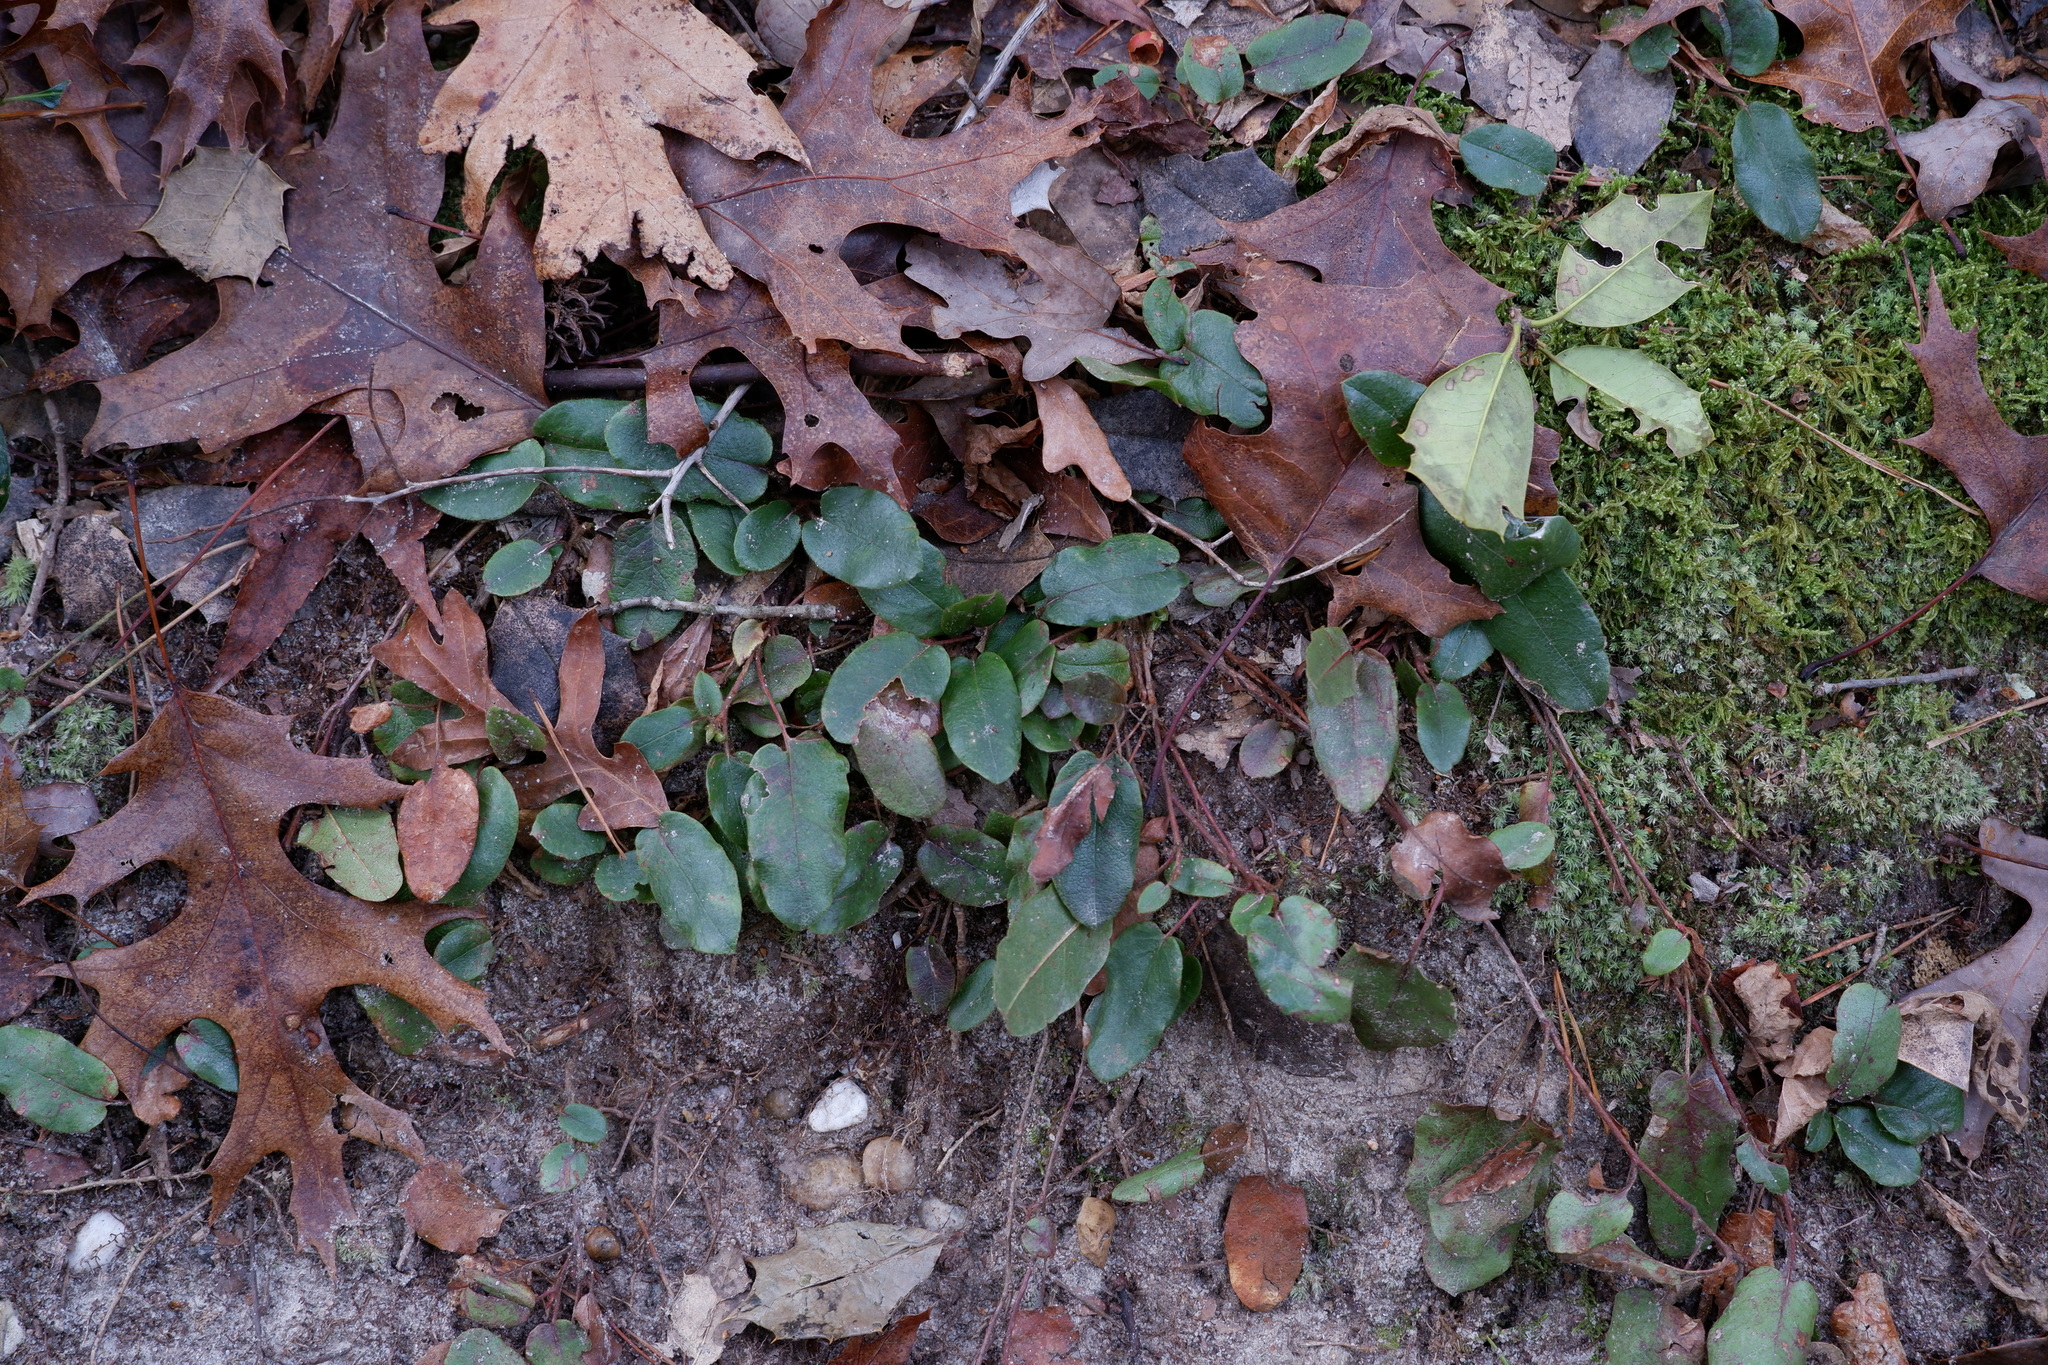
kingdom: Plantae
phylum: Tracheophyta
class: Magnoliopsida
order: Ericales
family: Ericaceae
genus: Epigaea
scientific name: Epigaea repens
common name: Gravelroot
